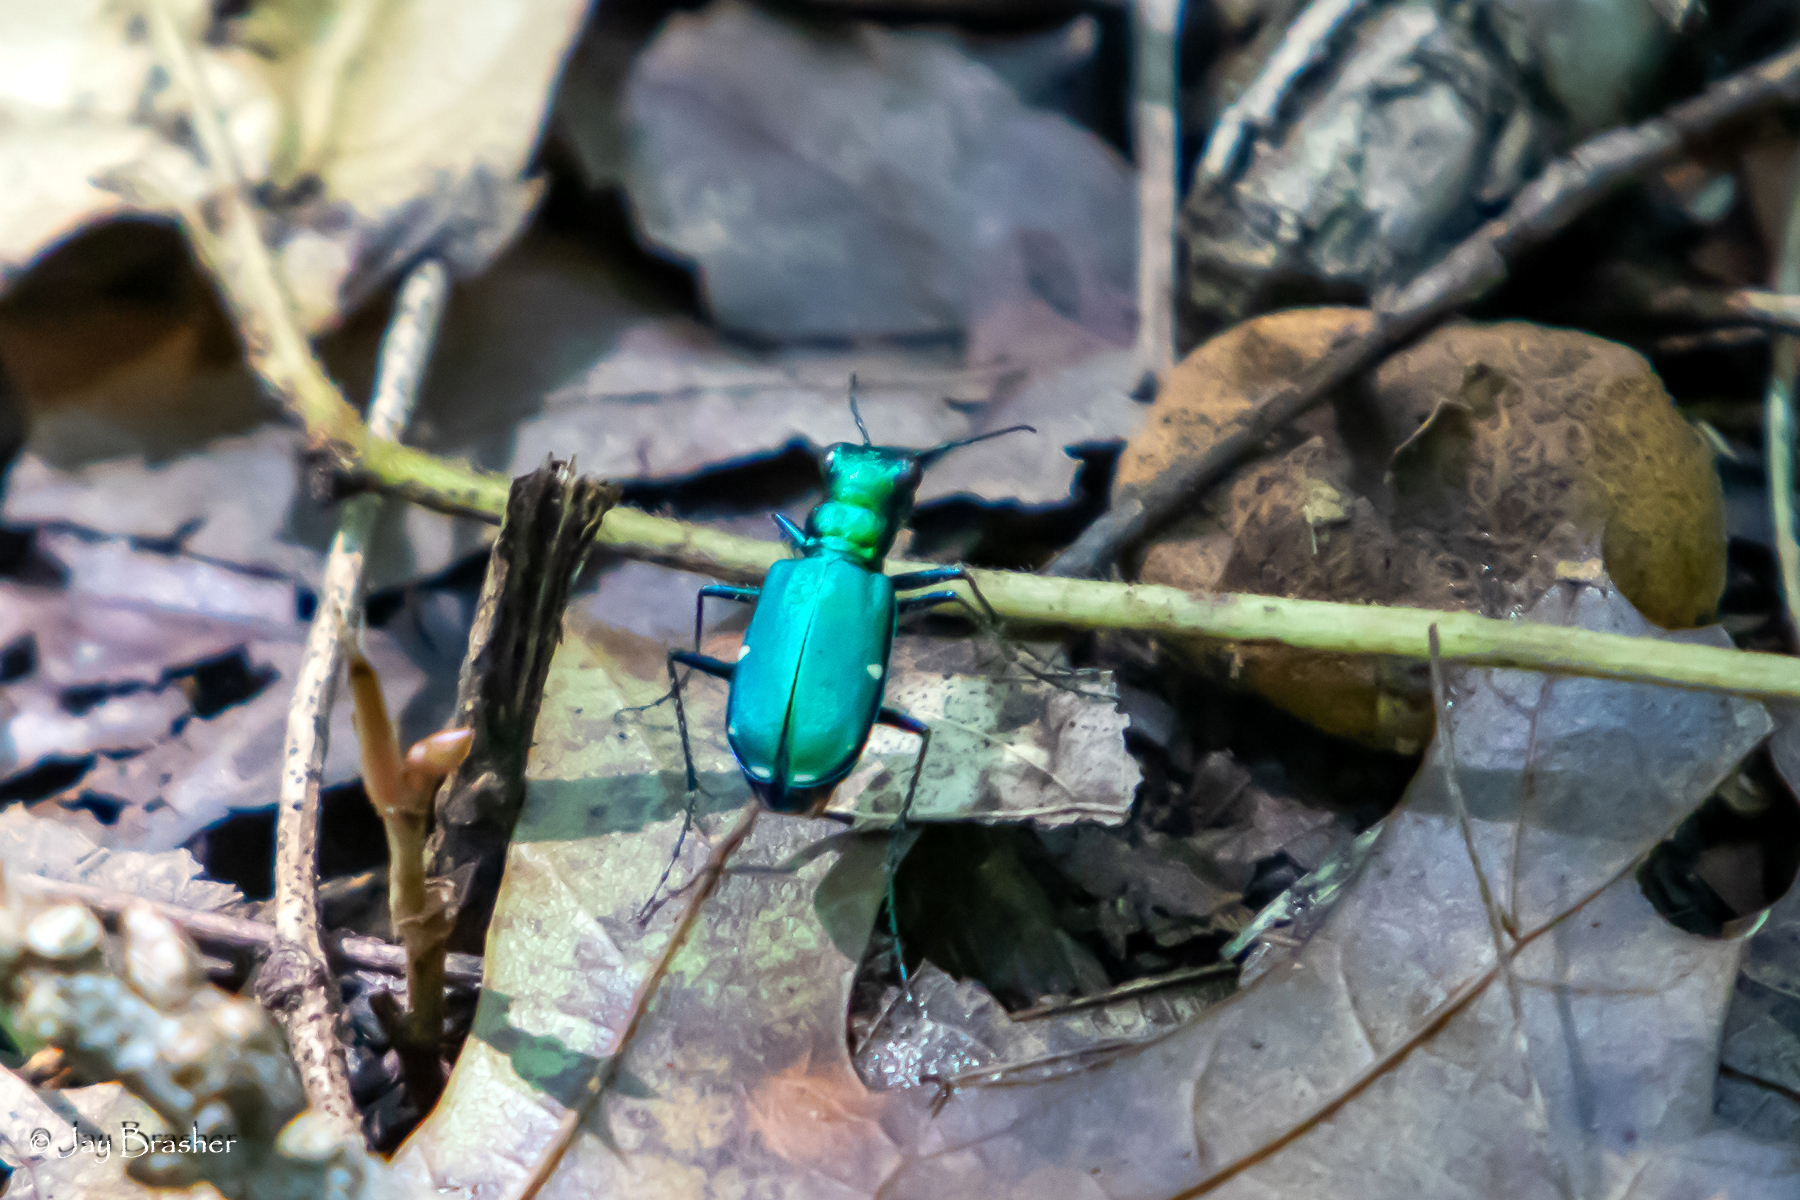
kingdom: Animalia
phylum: Arthropoda
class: Insecta
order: Coleoptera
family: Carabidae
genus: Cicindela
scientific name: Cicindela sexguttata
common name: Six-spotted tiger beetle
